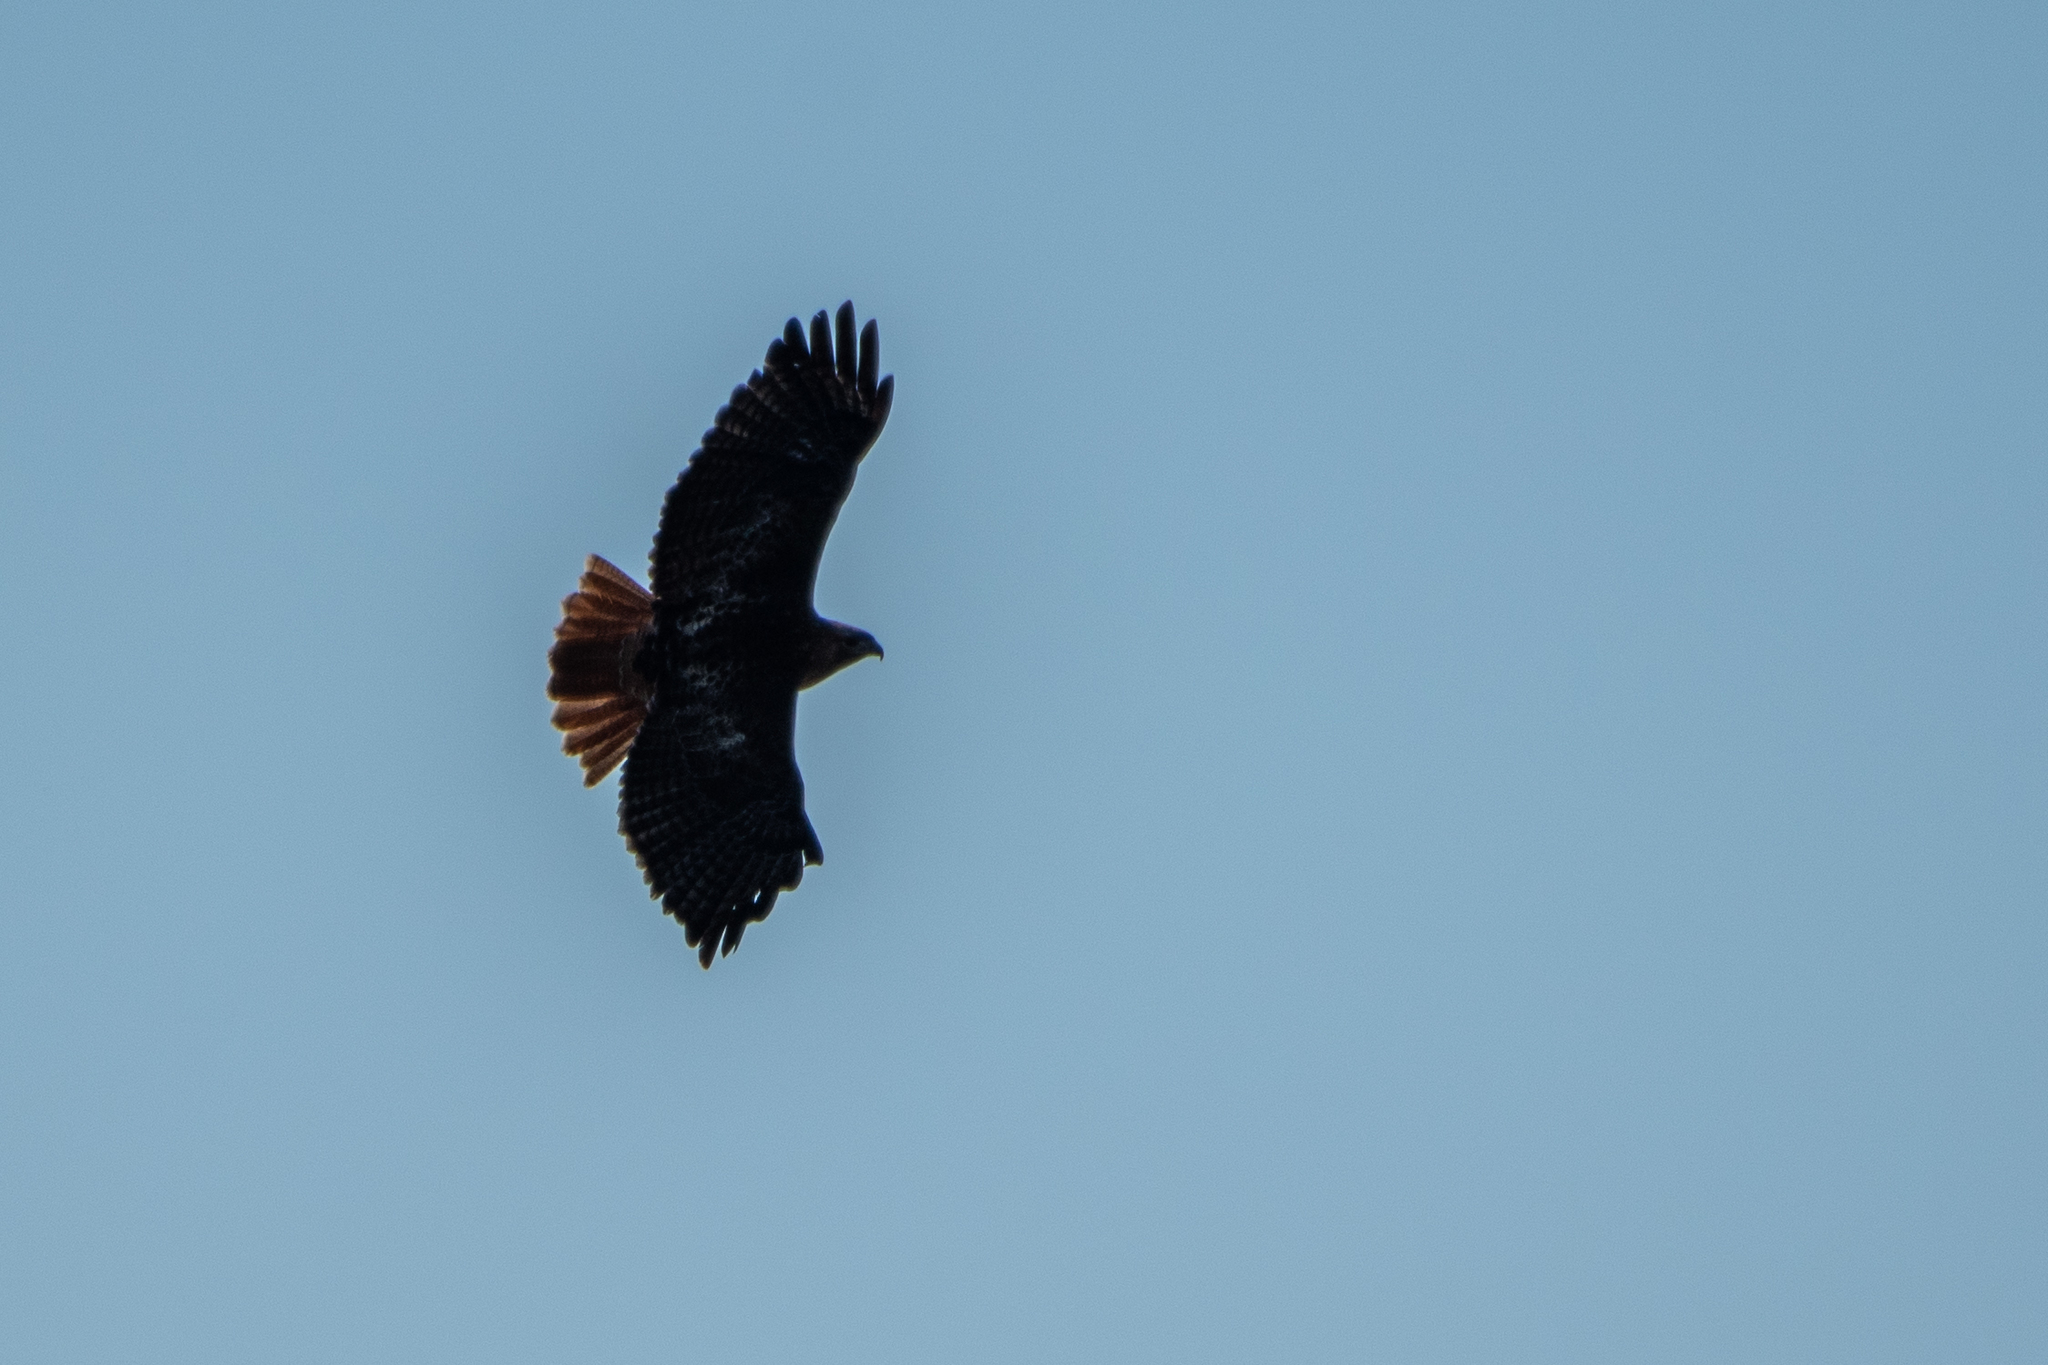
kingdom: Animalia
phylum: Chordata
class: Aves
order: Accipitriformes
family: Accipitridae
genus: Buteo
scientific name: Buteo jamaicensis
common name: Red-tailed hawk
